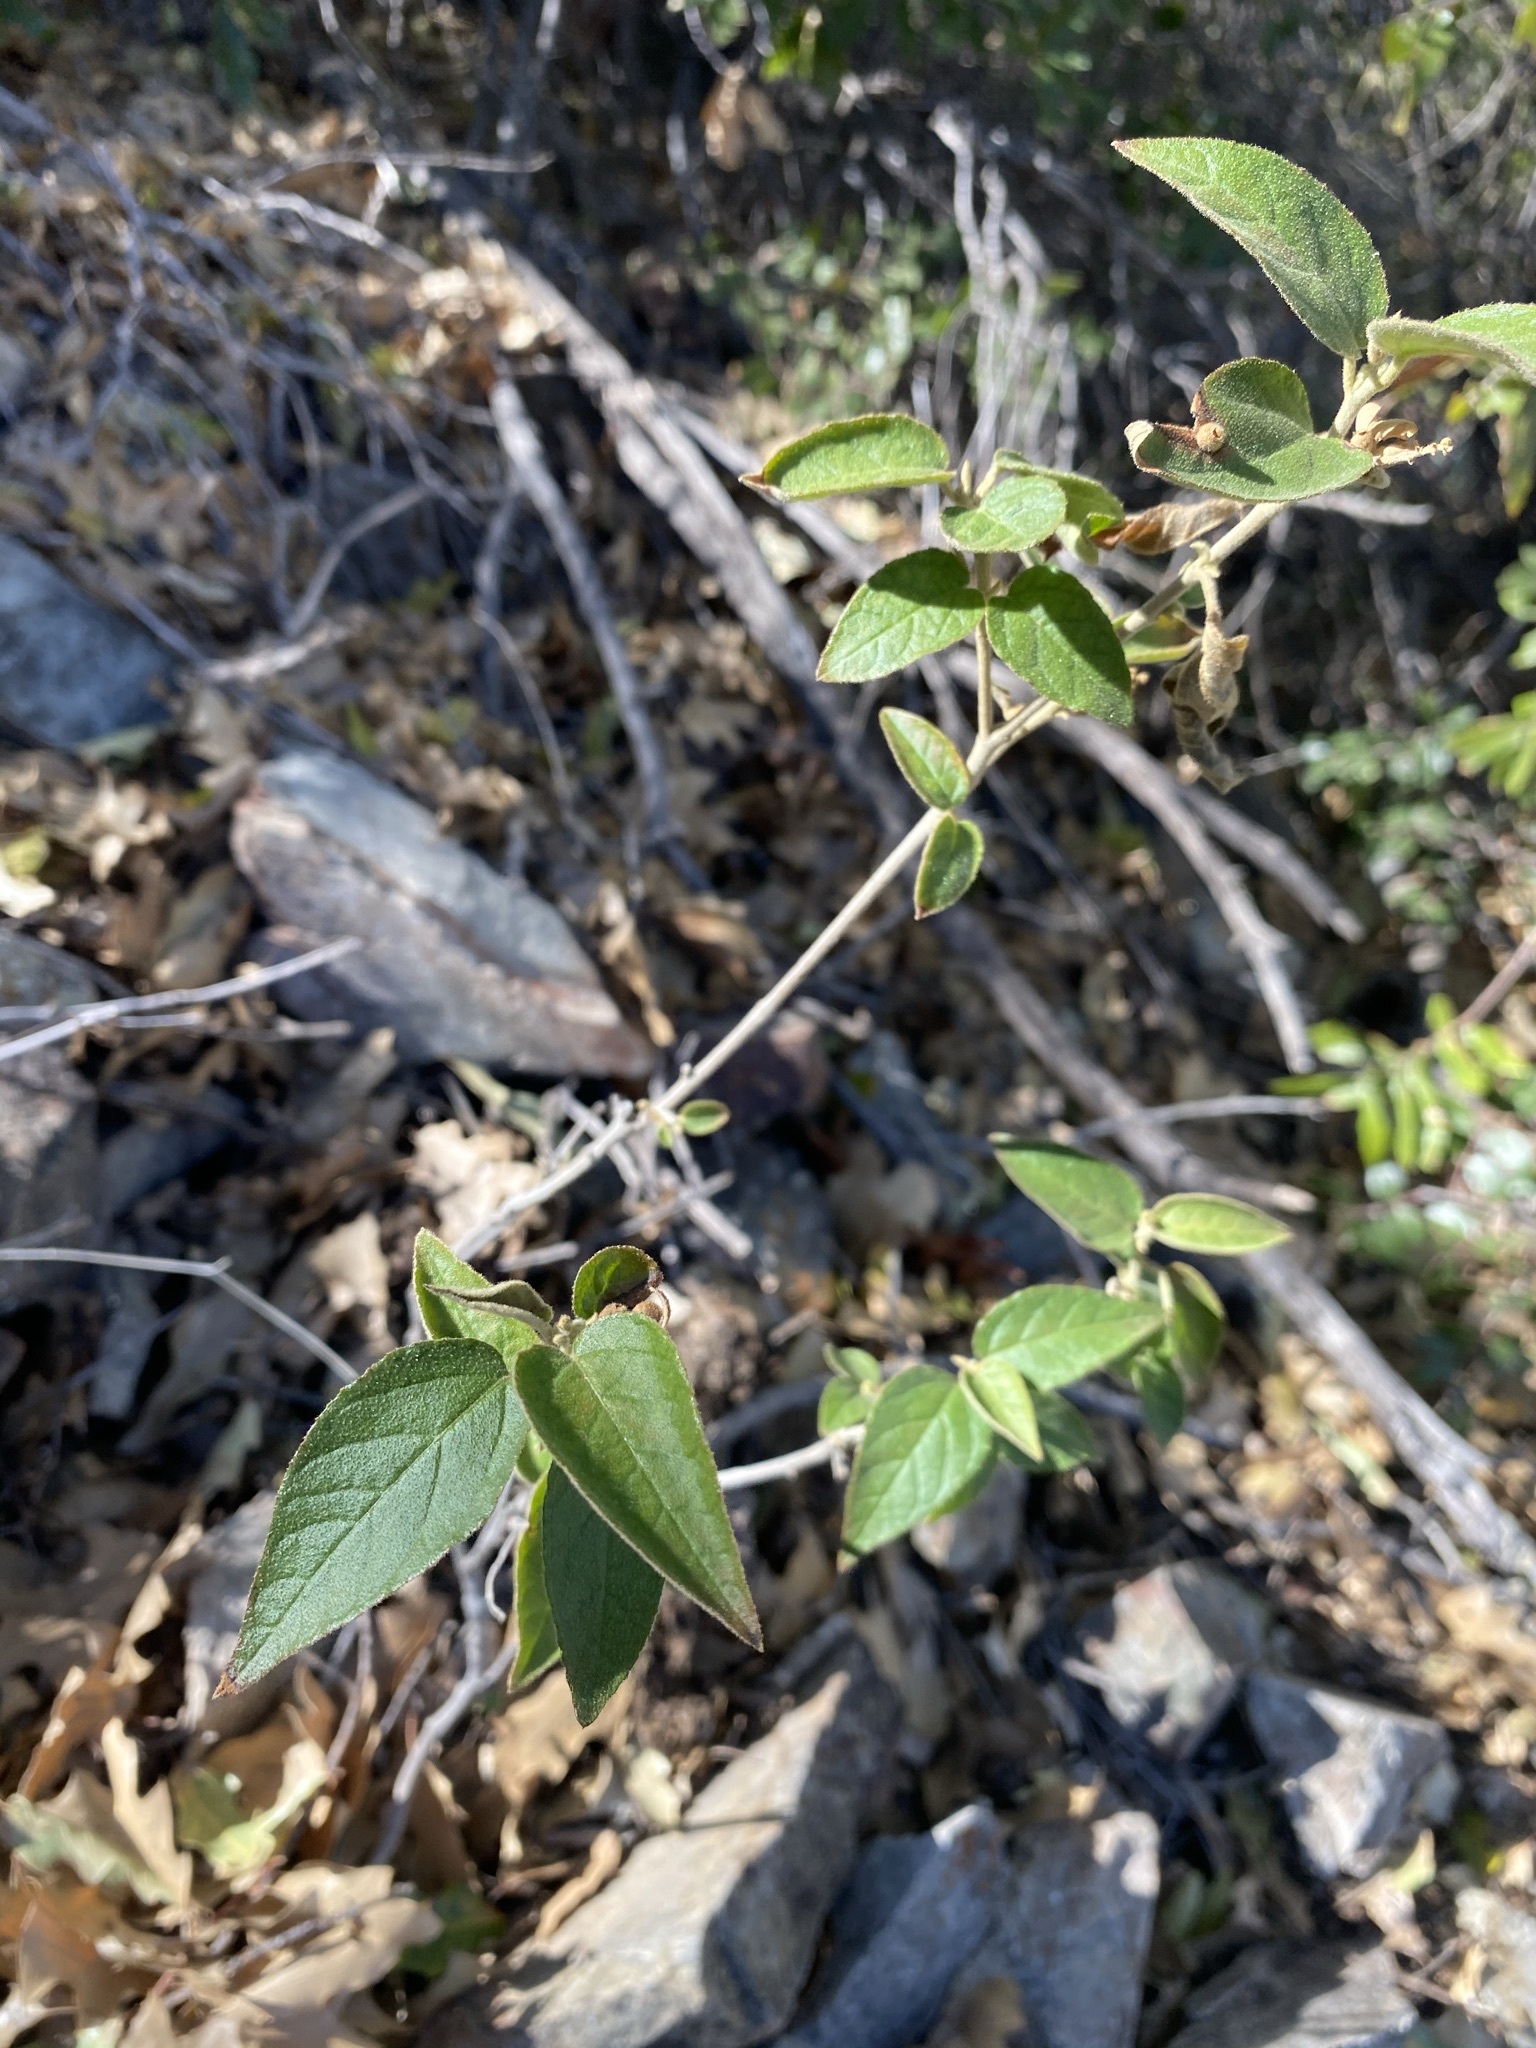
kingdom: Plantae
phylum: Tracheophyta
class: Magnoliopsida
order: Malpighiales
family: Euphorbiaceae
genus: Croton
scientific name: Croton fruticulosus
